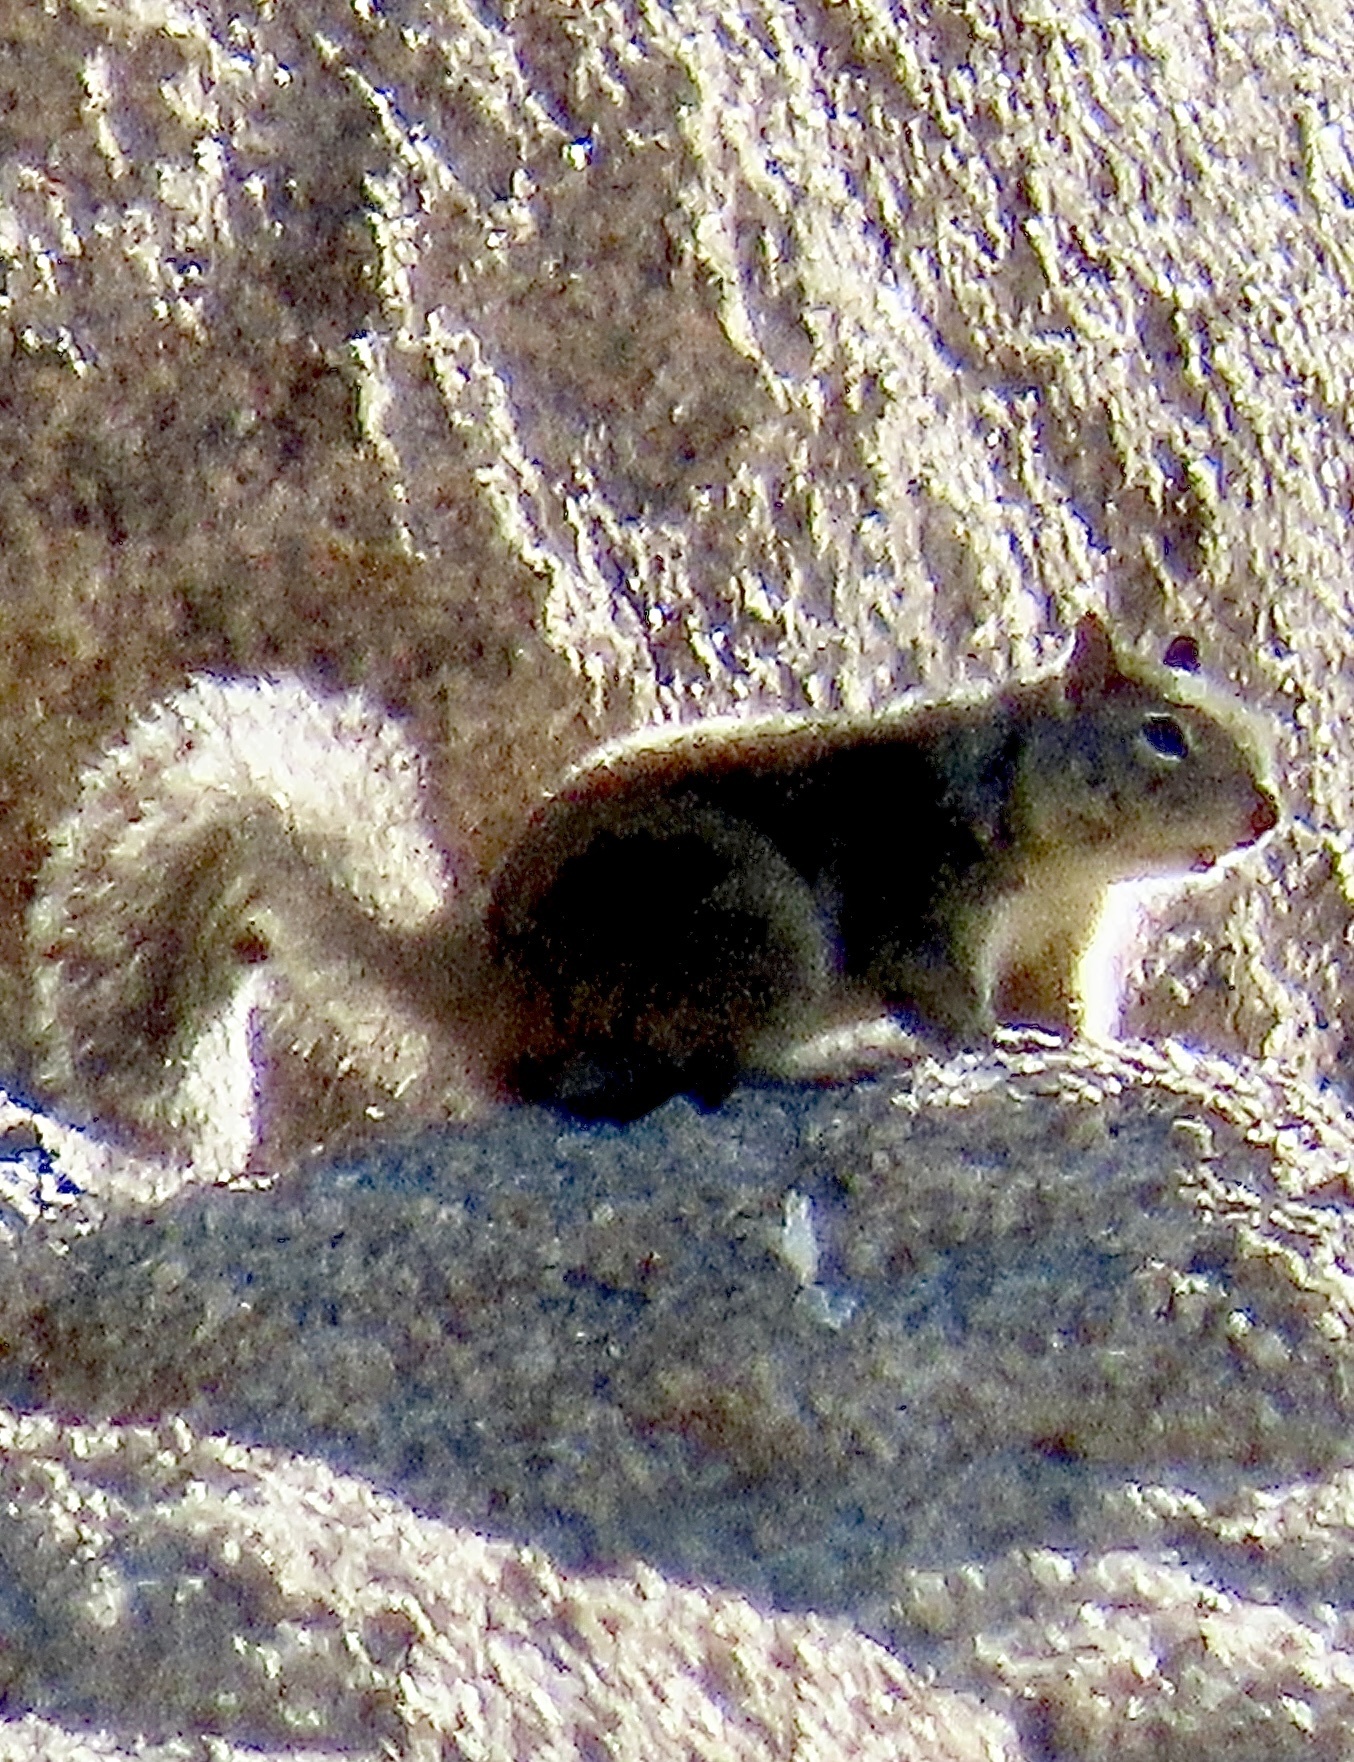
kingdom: Animalia
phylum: Chordata
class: Mammalia
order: Rodentia
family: Sciuridae
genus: Otospermophilus
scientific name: Otospermophilus beecheyi
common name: California ground squirrel
